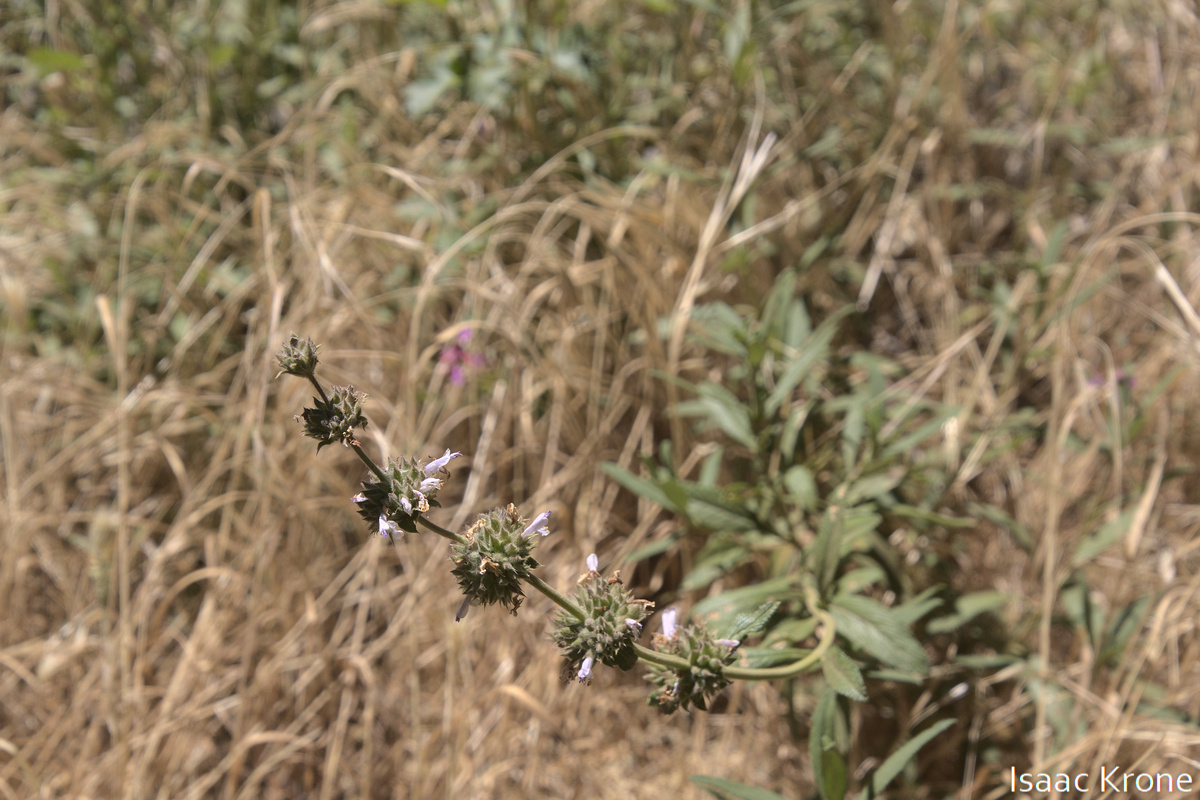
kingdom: Plantae
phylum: Tracheophyta
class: Magnoliopsida
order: Lamiales
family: Lamiaceae
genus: Salvia
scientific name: Salvia mellifera
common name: Black sage
